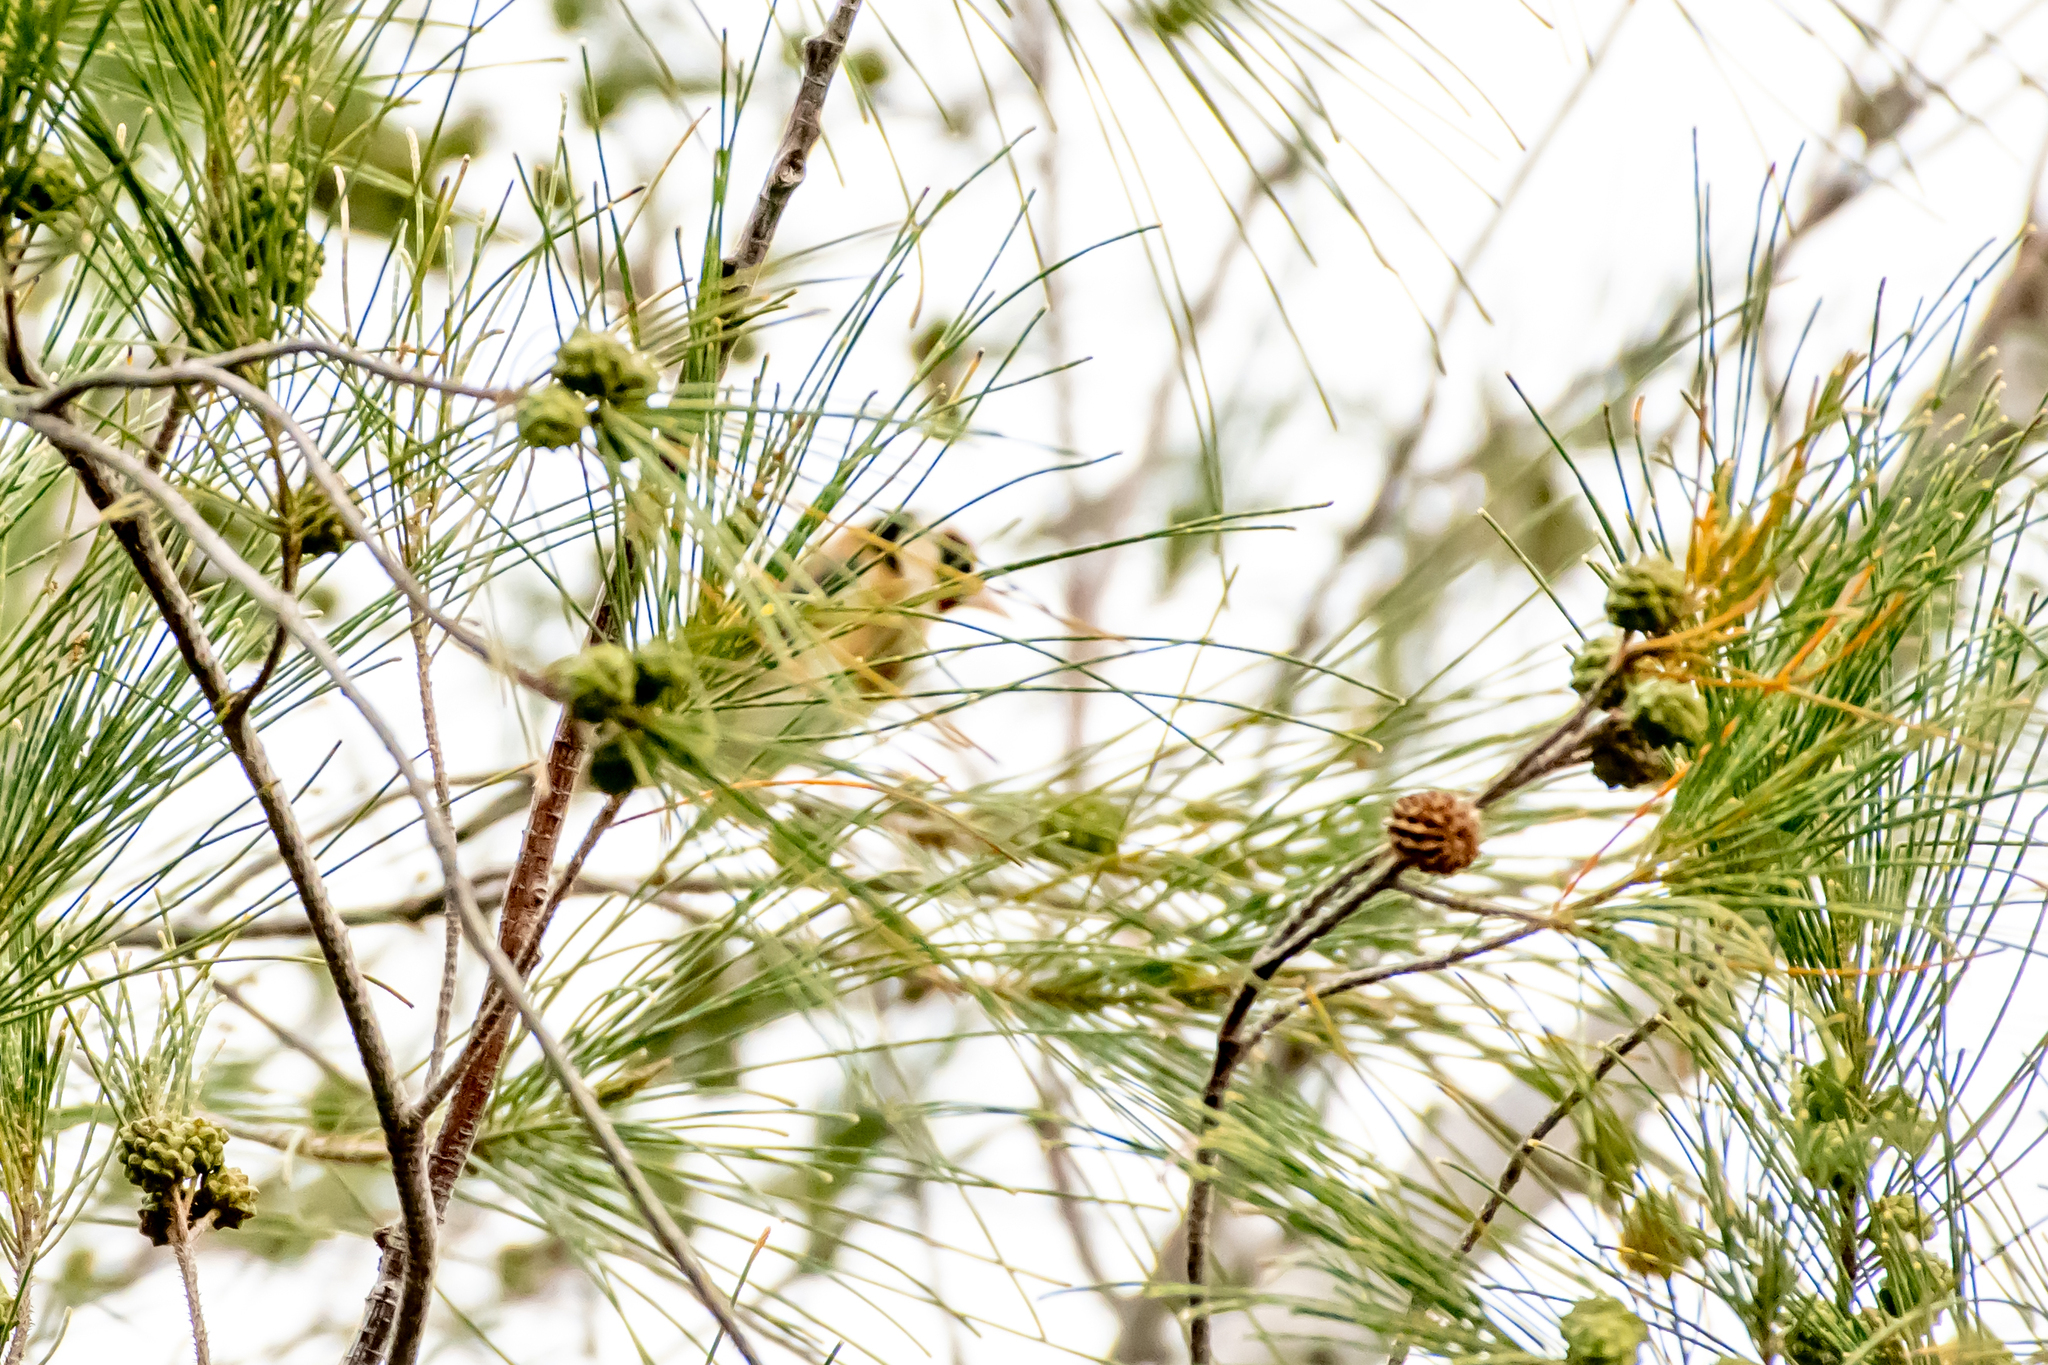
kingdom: Animalia
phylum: Chordata
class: Aves
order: Passeriformes
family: Fringillidae
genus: Carduelis
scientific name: Carduelis carduelis
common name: European goldfinch
